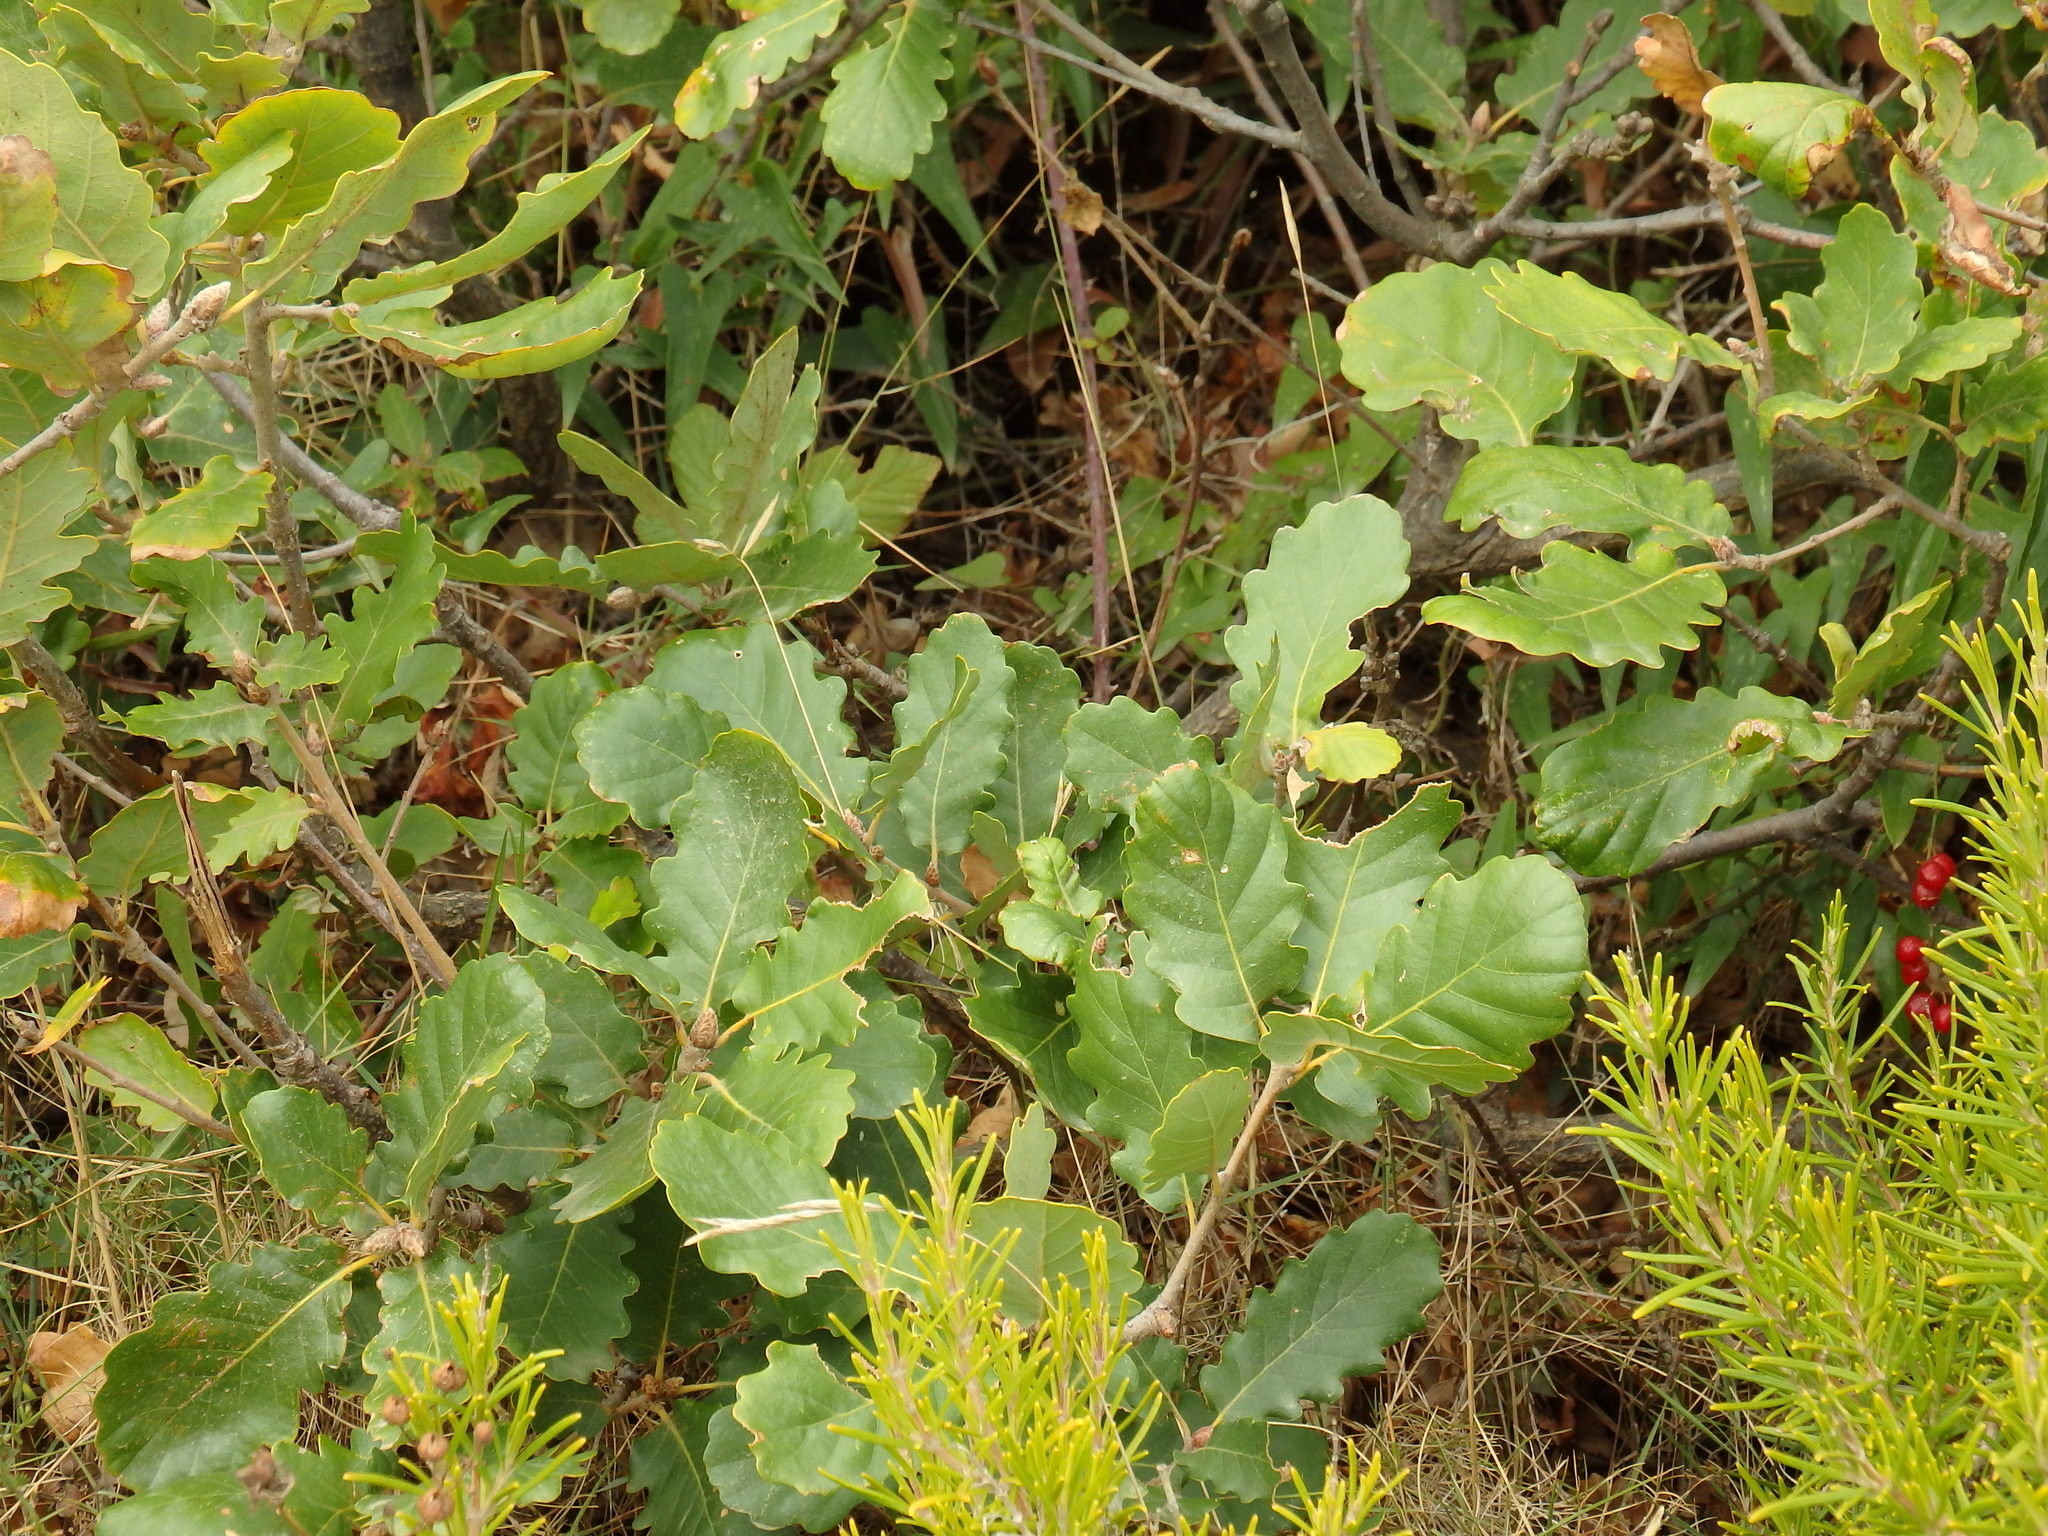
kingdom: Plantae
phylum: Tracheophyta
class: Magnoliopsida
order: Fagales
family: Fagaceae
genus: Quercus
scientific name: Quercus pubescens
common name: Downy oak
